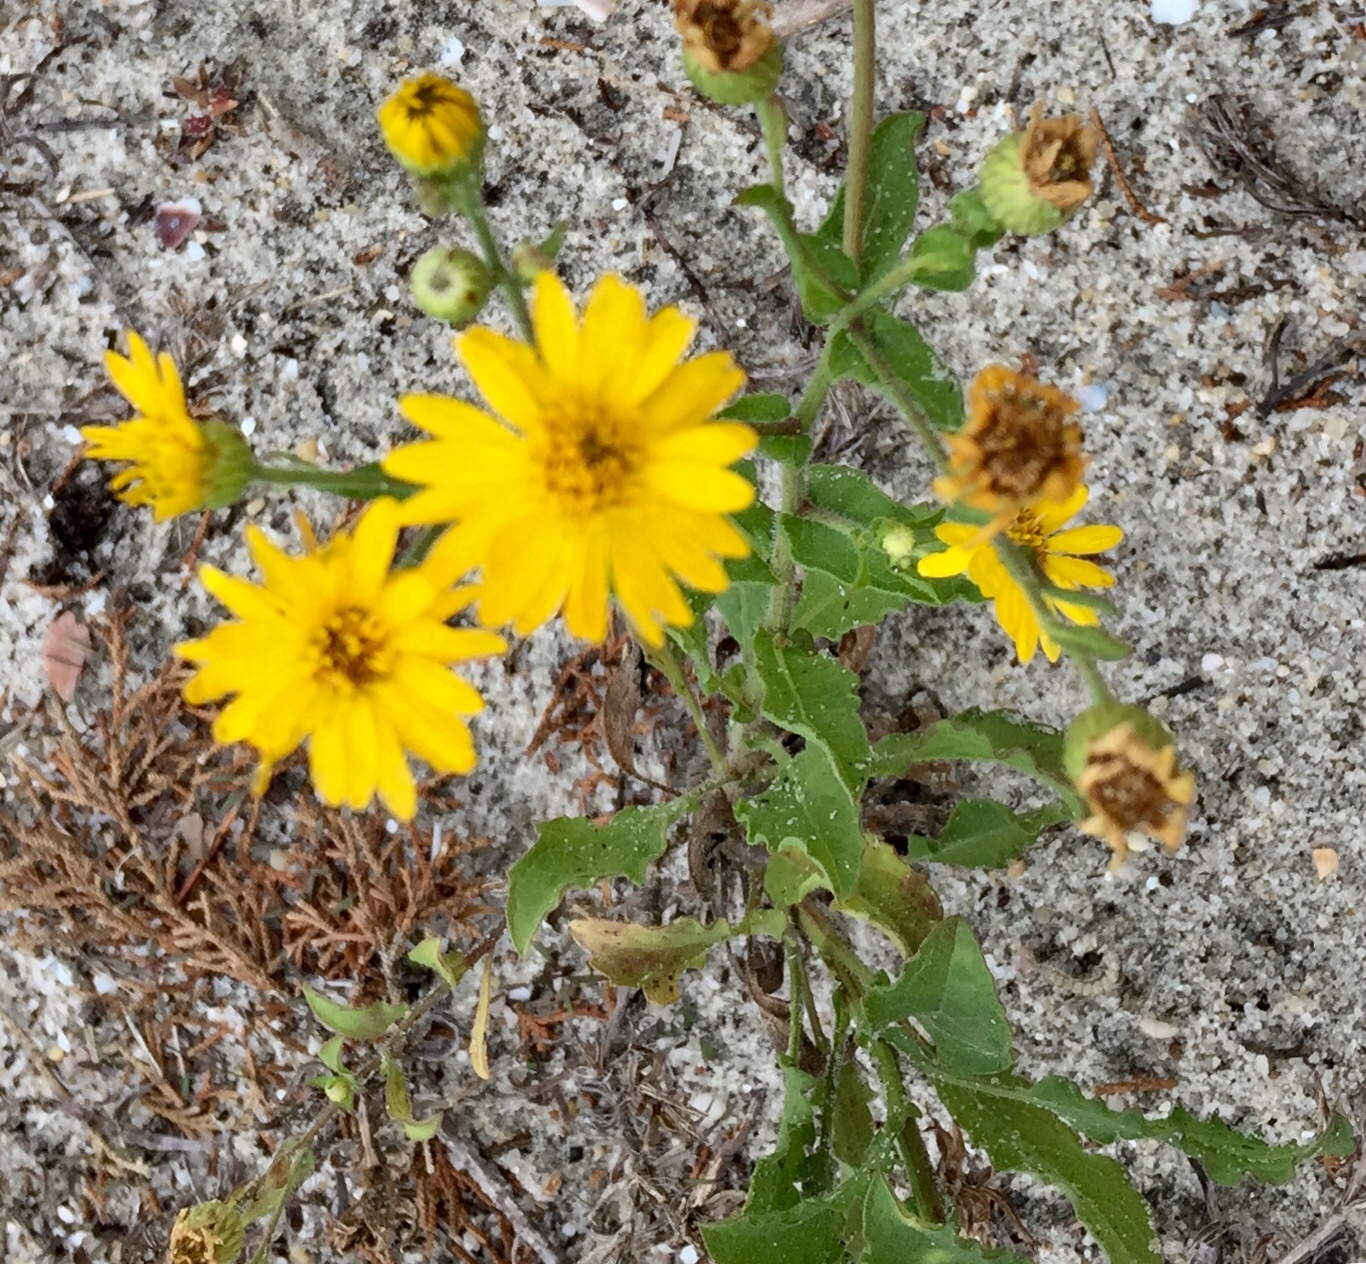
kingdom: Plantae
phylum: Tracheophyta
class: Magnoliopsida
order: Asterales
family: Asteraceae
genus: Heterotheca
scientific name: Heterotheca subaxillaris
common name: Camphorweed
